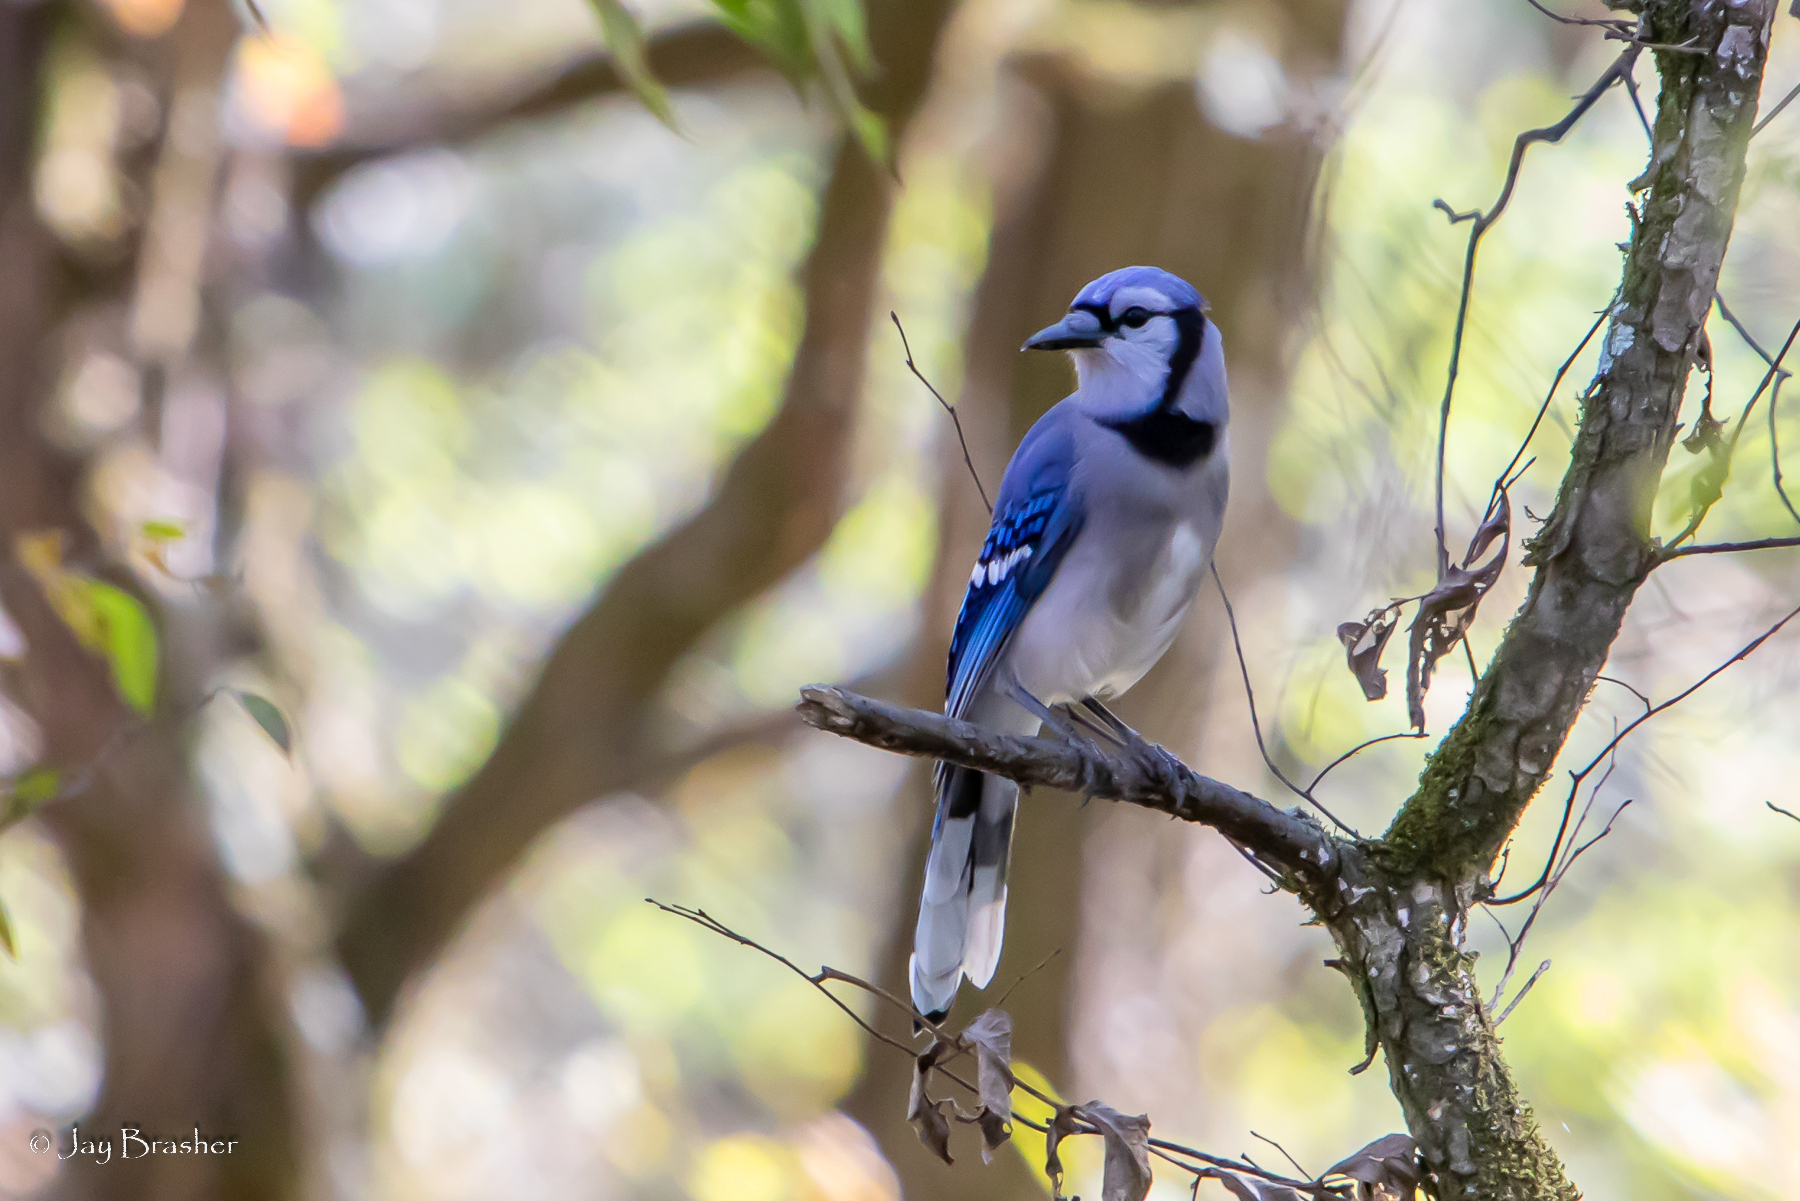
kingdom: Animalia
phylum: Chordata
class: Aves
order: Passeriformes
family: Corvidae
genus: Cyanocitta
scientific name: Cyanocitta cristata
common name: Blue jay
